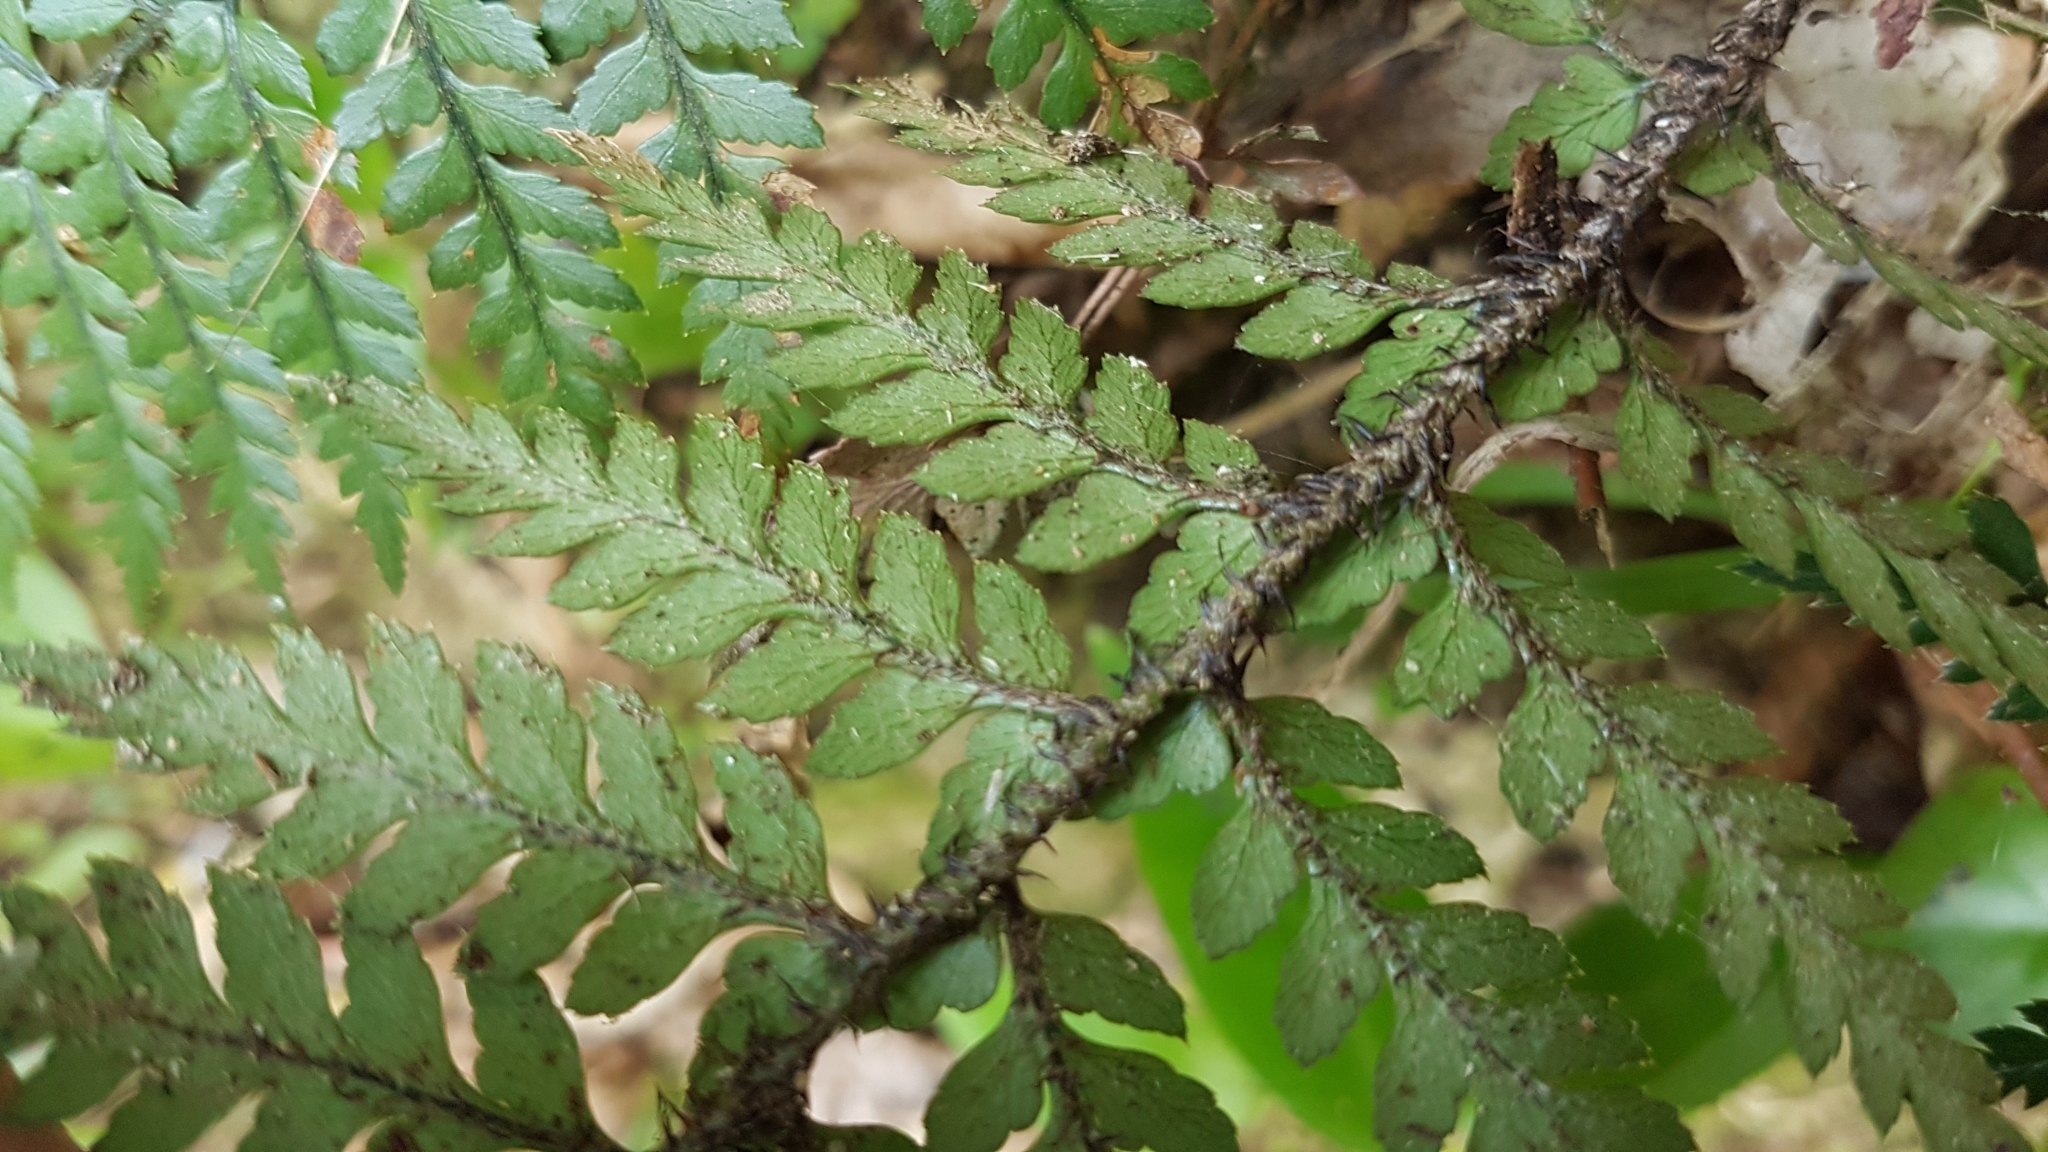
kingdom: Plantae
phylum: Tracheophyta
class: Polypodiopsida
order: Polypodiales
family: Dryopteridaceae
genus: Polystichum
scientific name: Polystichum neozelandicum
